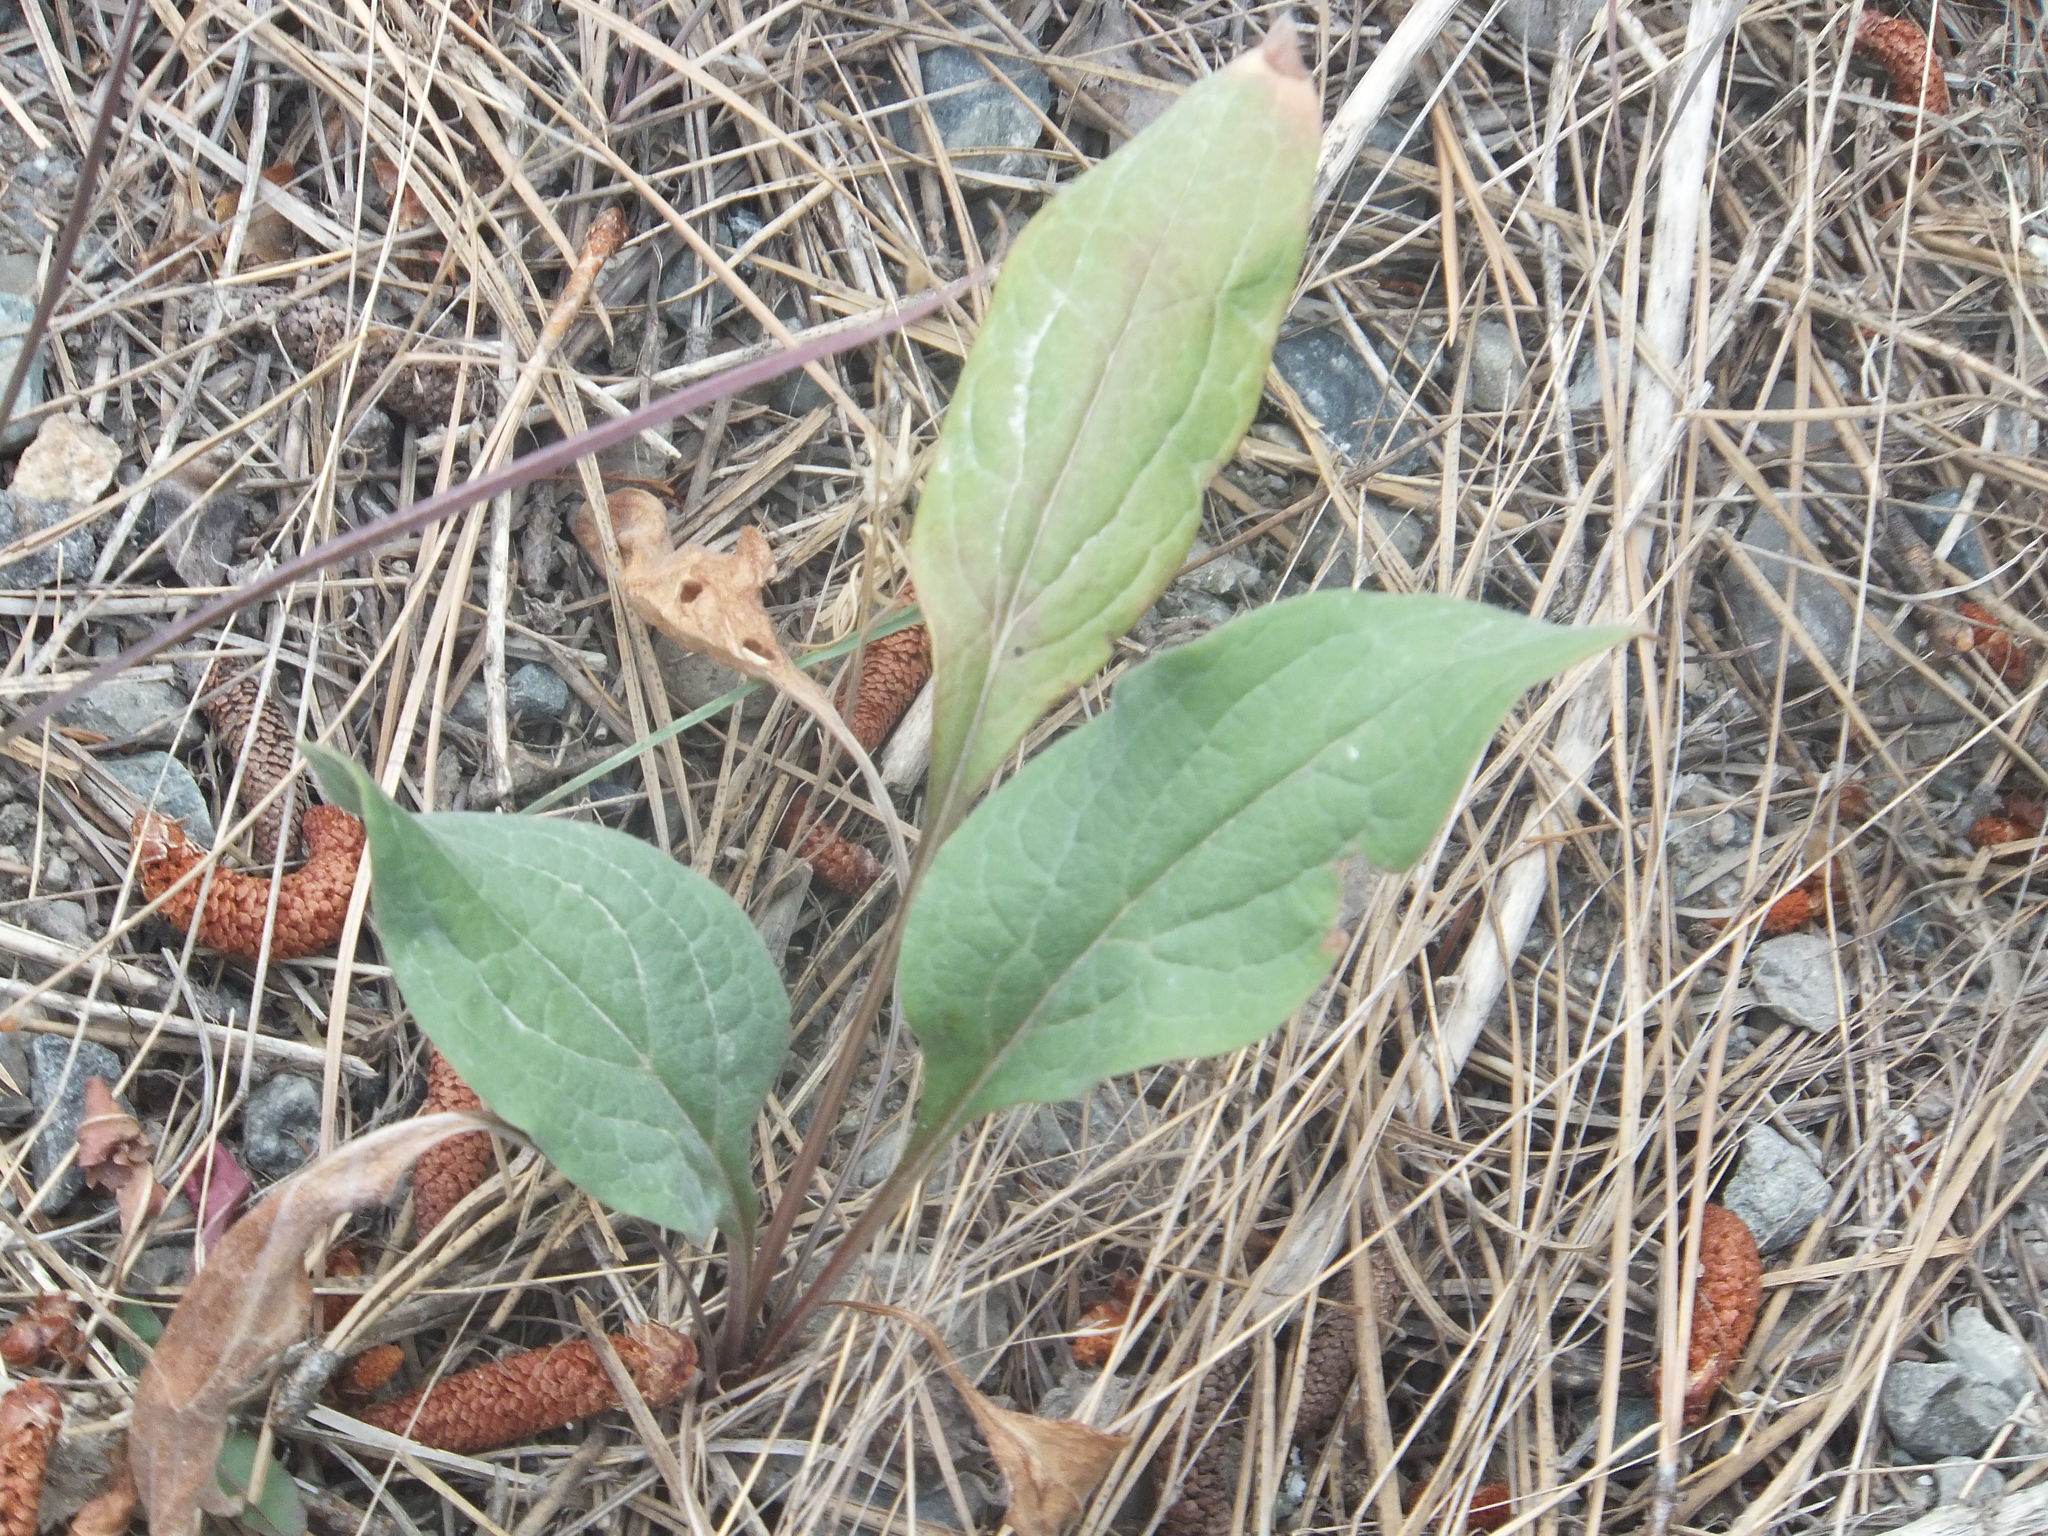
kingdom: Plantae
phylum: Tracheophyta
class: Magnoliopsida
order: Boraginales
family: Boraginaceae
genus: Cynoglossum
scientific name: Cynoglossum officinale
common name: Hound's-tongue
